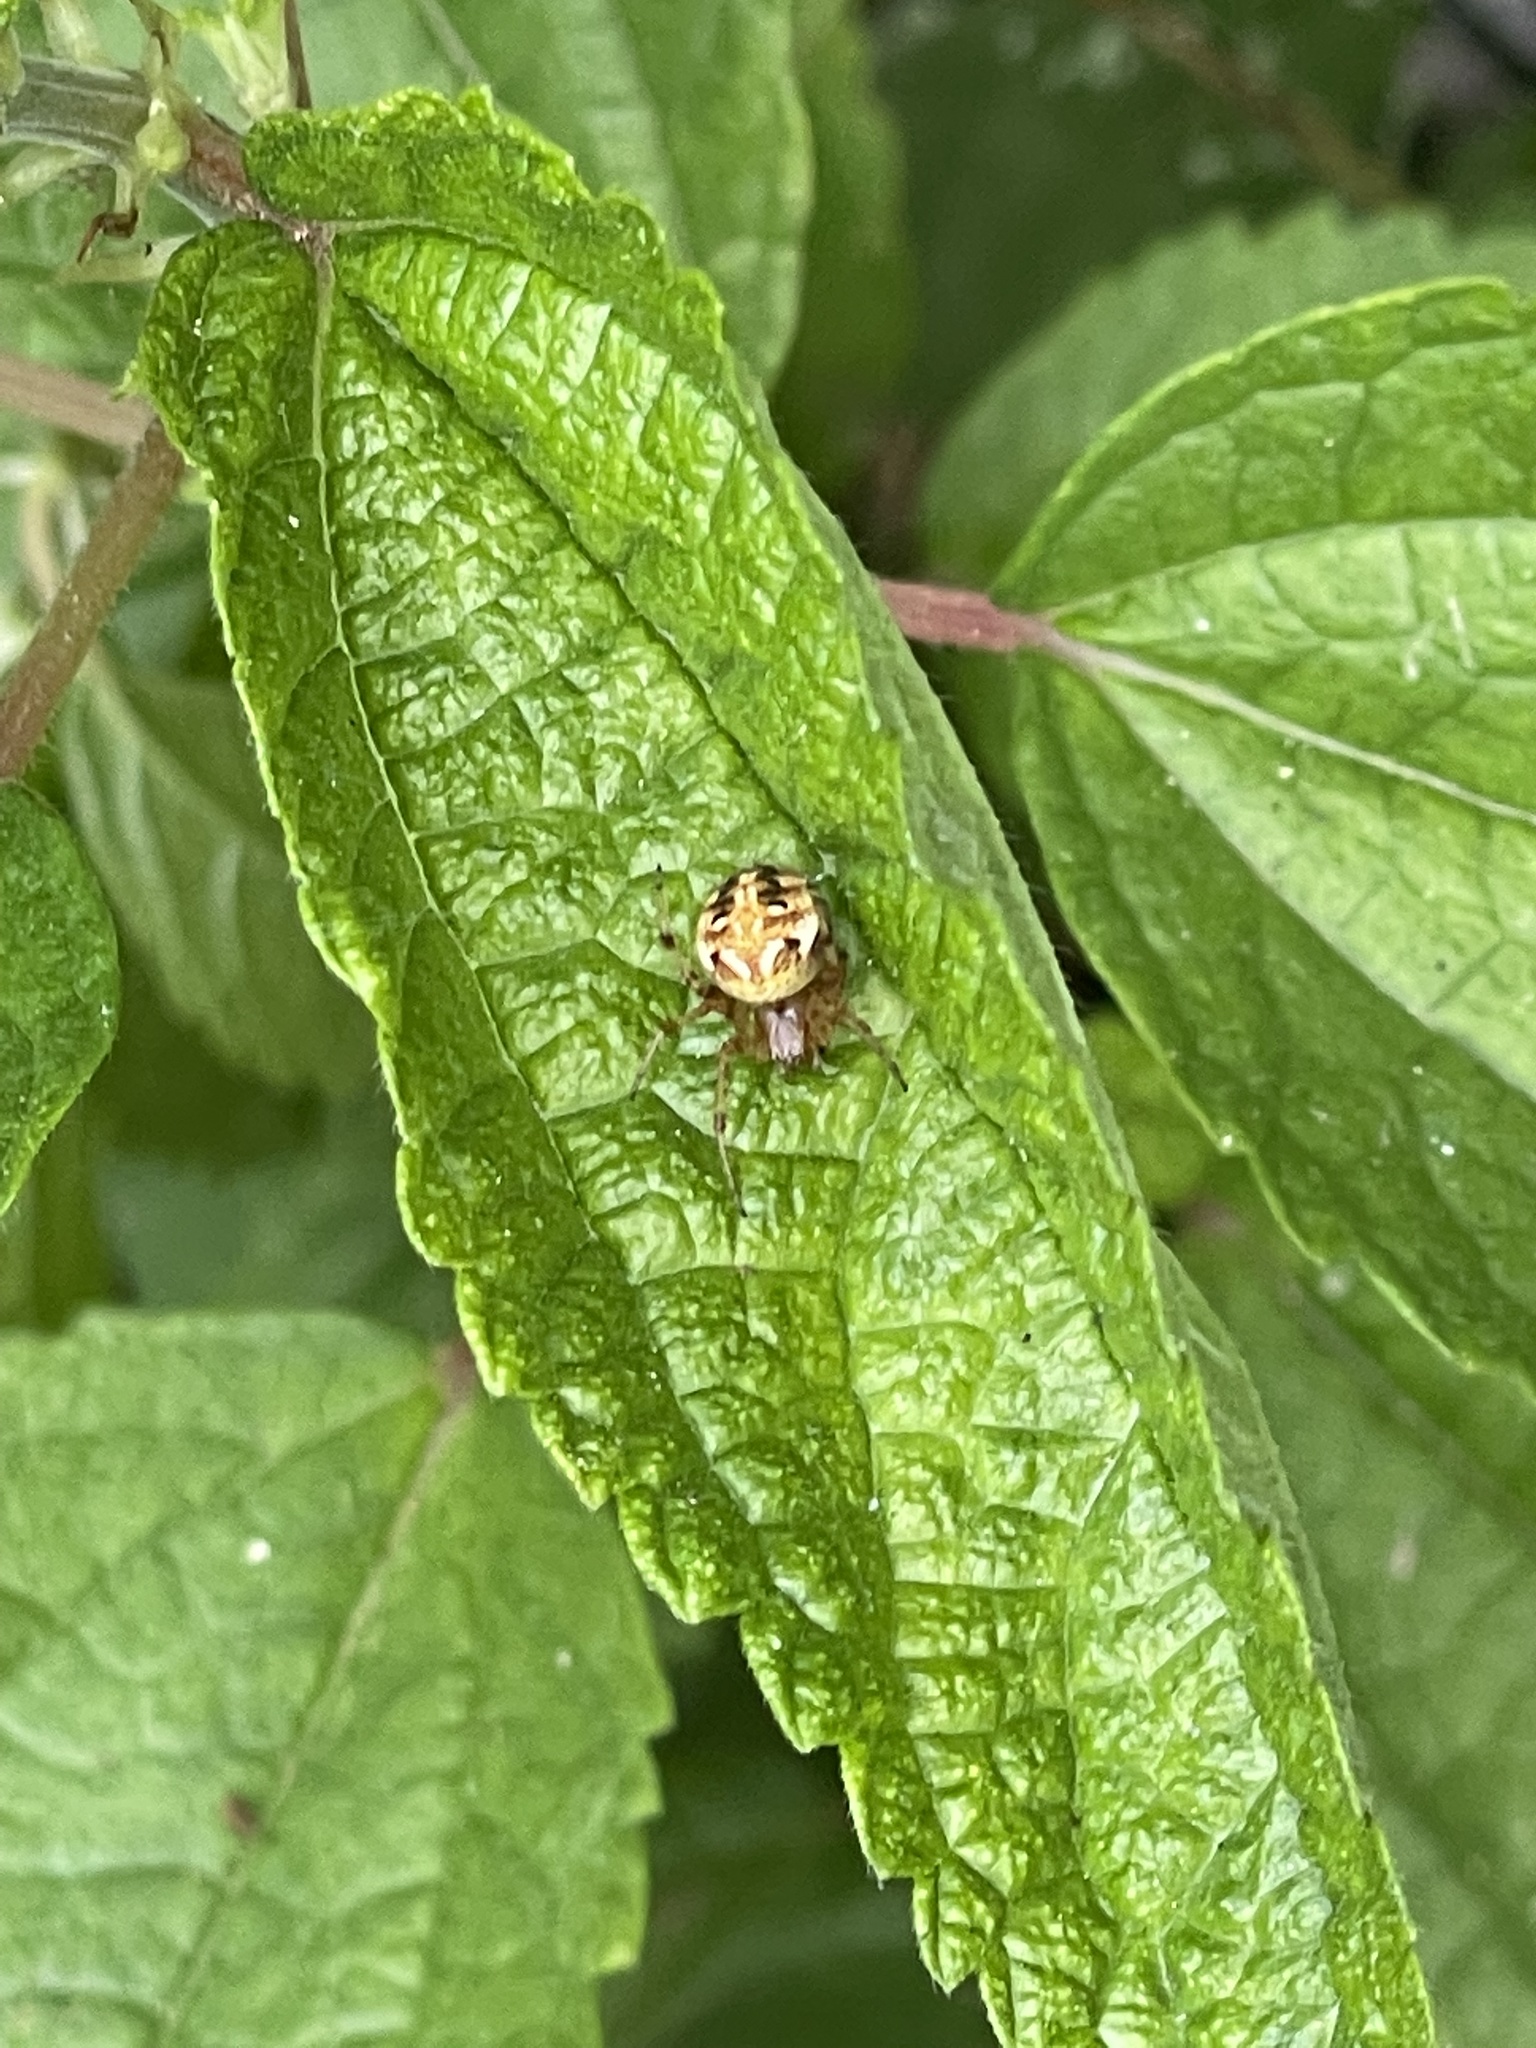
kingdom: Animalia
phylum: Arthropoda
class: Arachnida
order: Araneae
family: Araneidae
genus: Neoscona
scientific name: Neoscona arabesca
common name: Orb weavers
